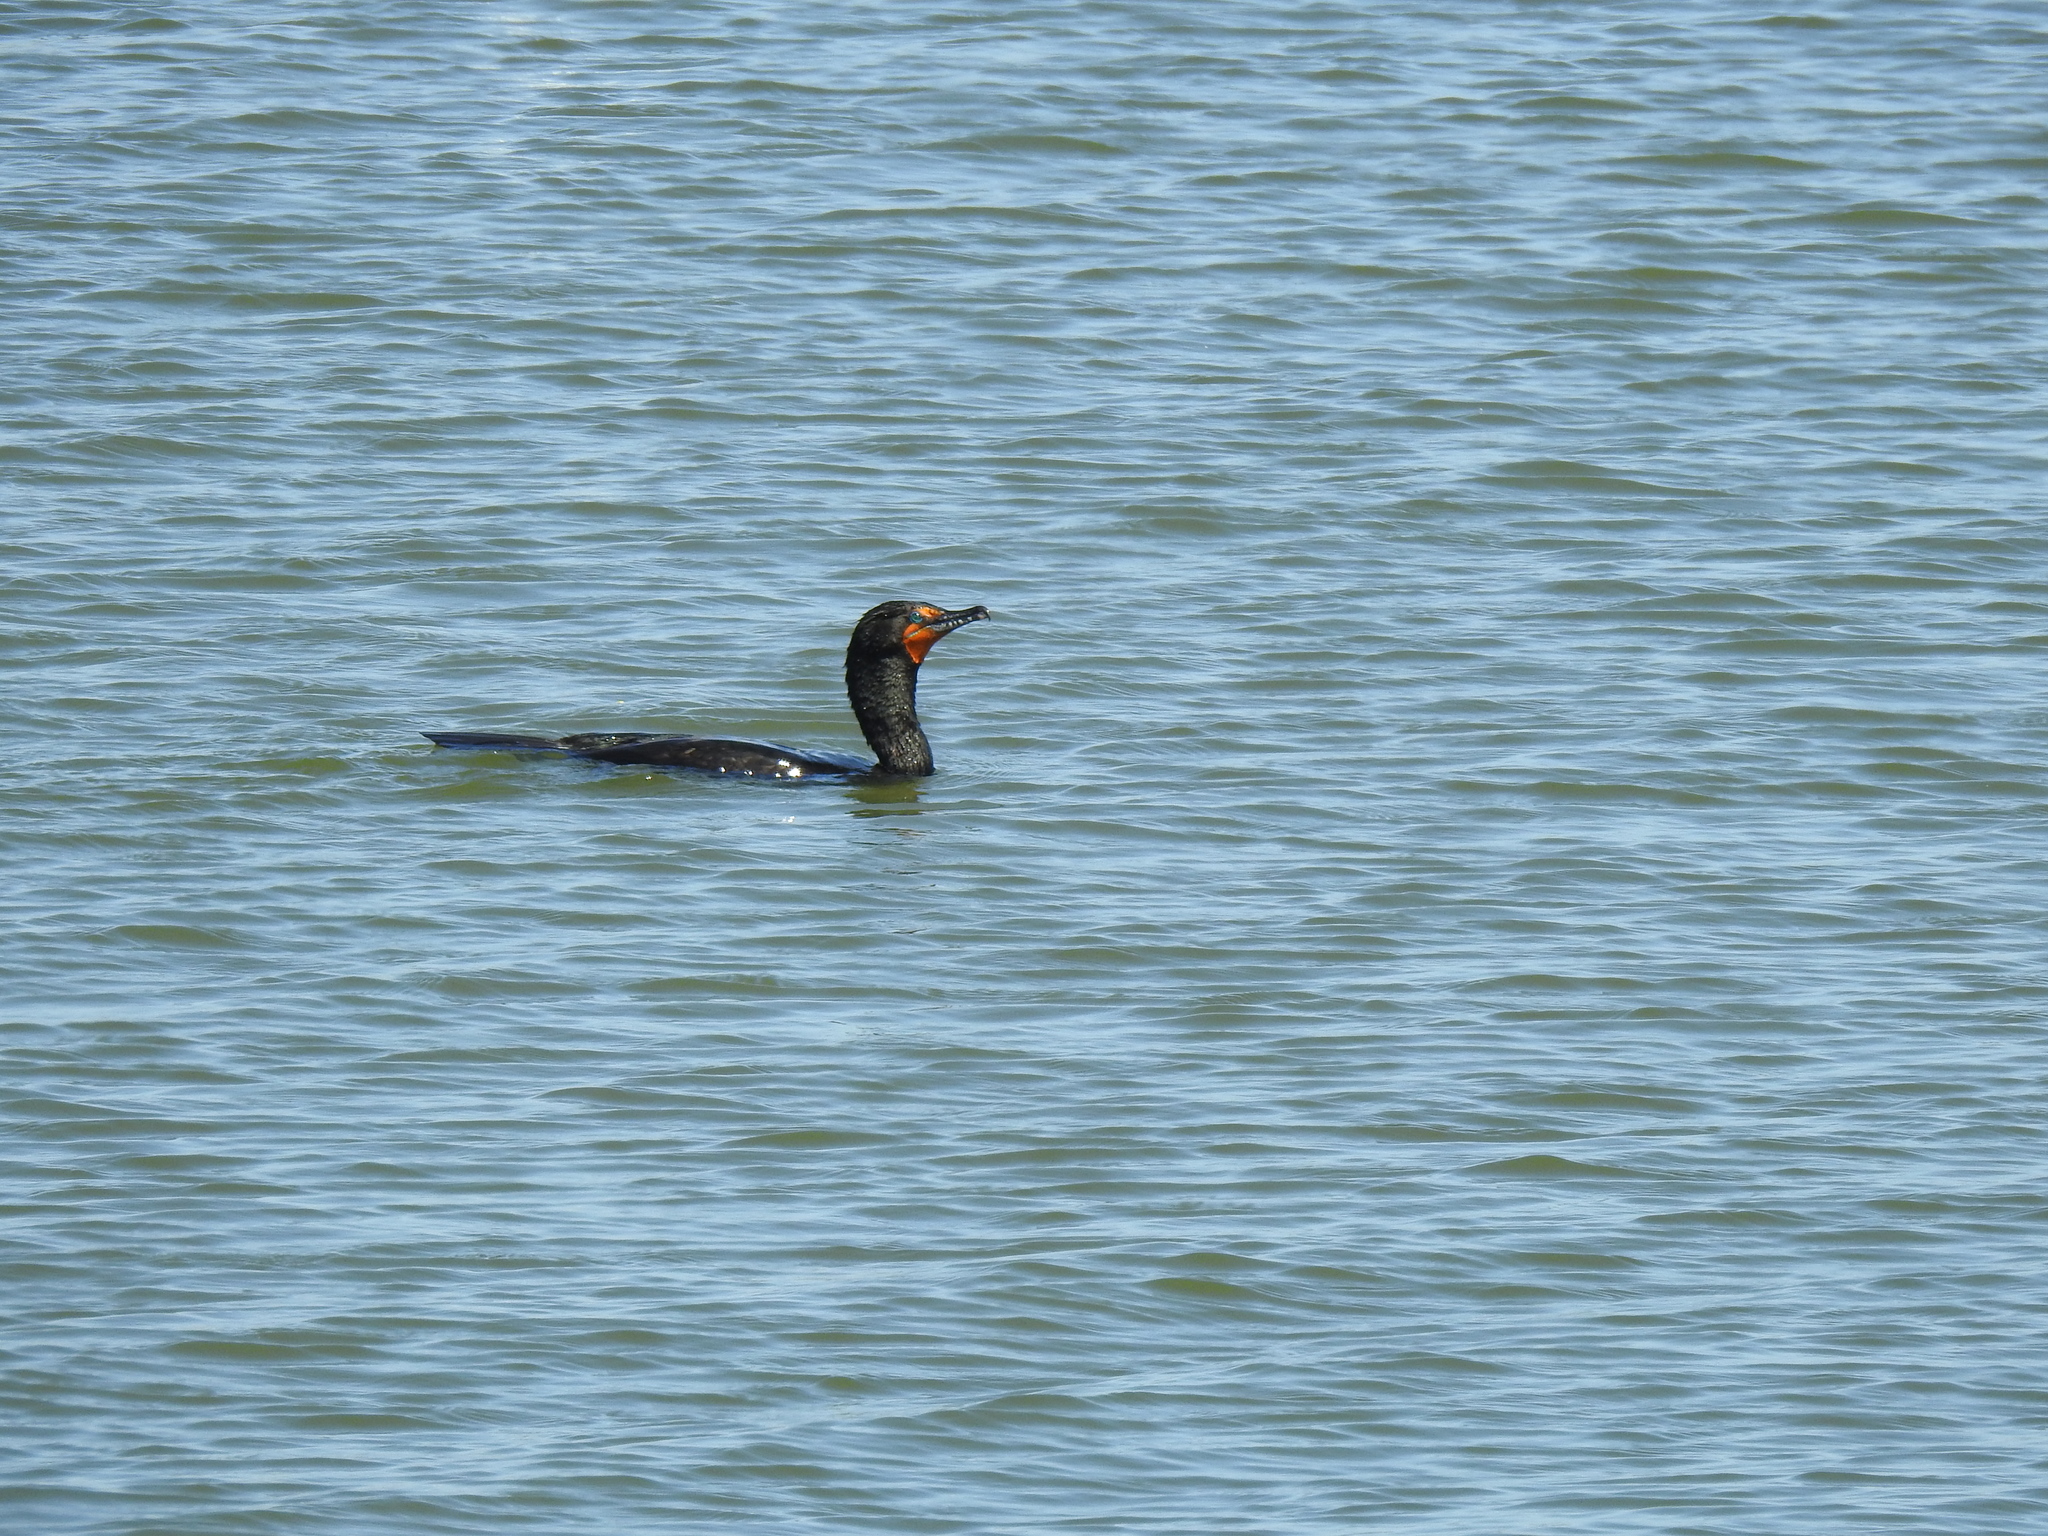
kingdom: Animalia
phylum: Chordata
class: Aves
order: Suliformes
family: Phalacrocoracidae
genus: Phalacrocorax
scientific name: Phalacrocorax auritus
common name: Double-crested cormorant
